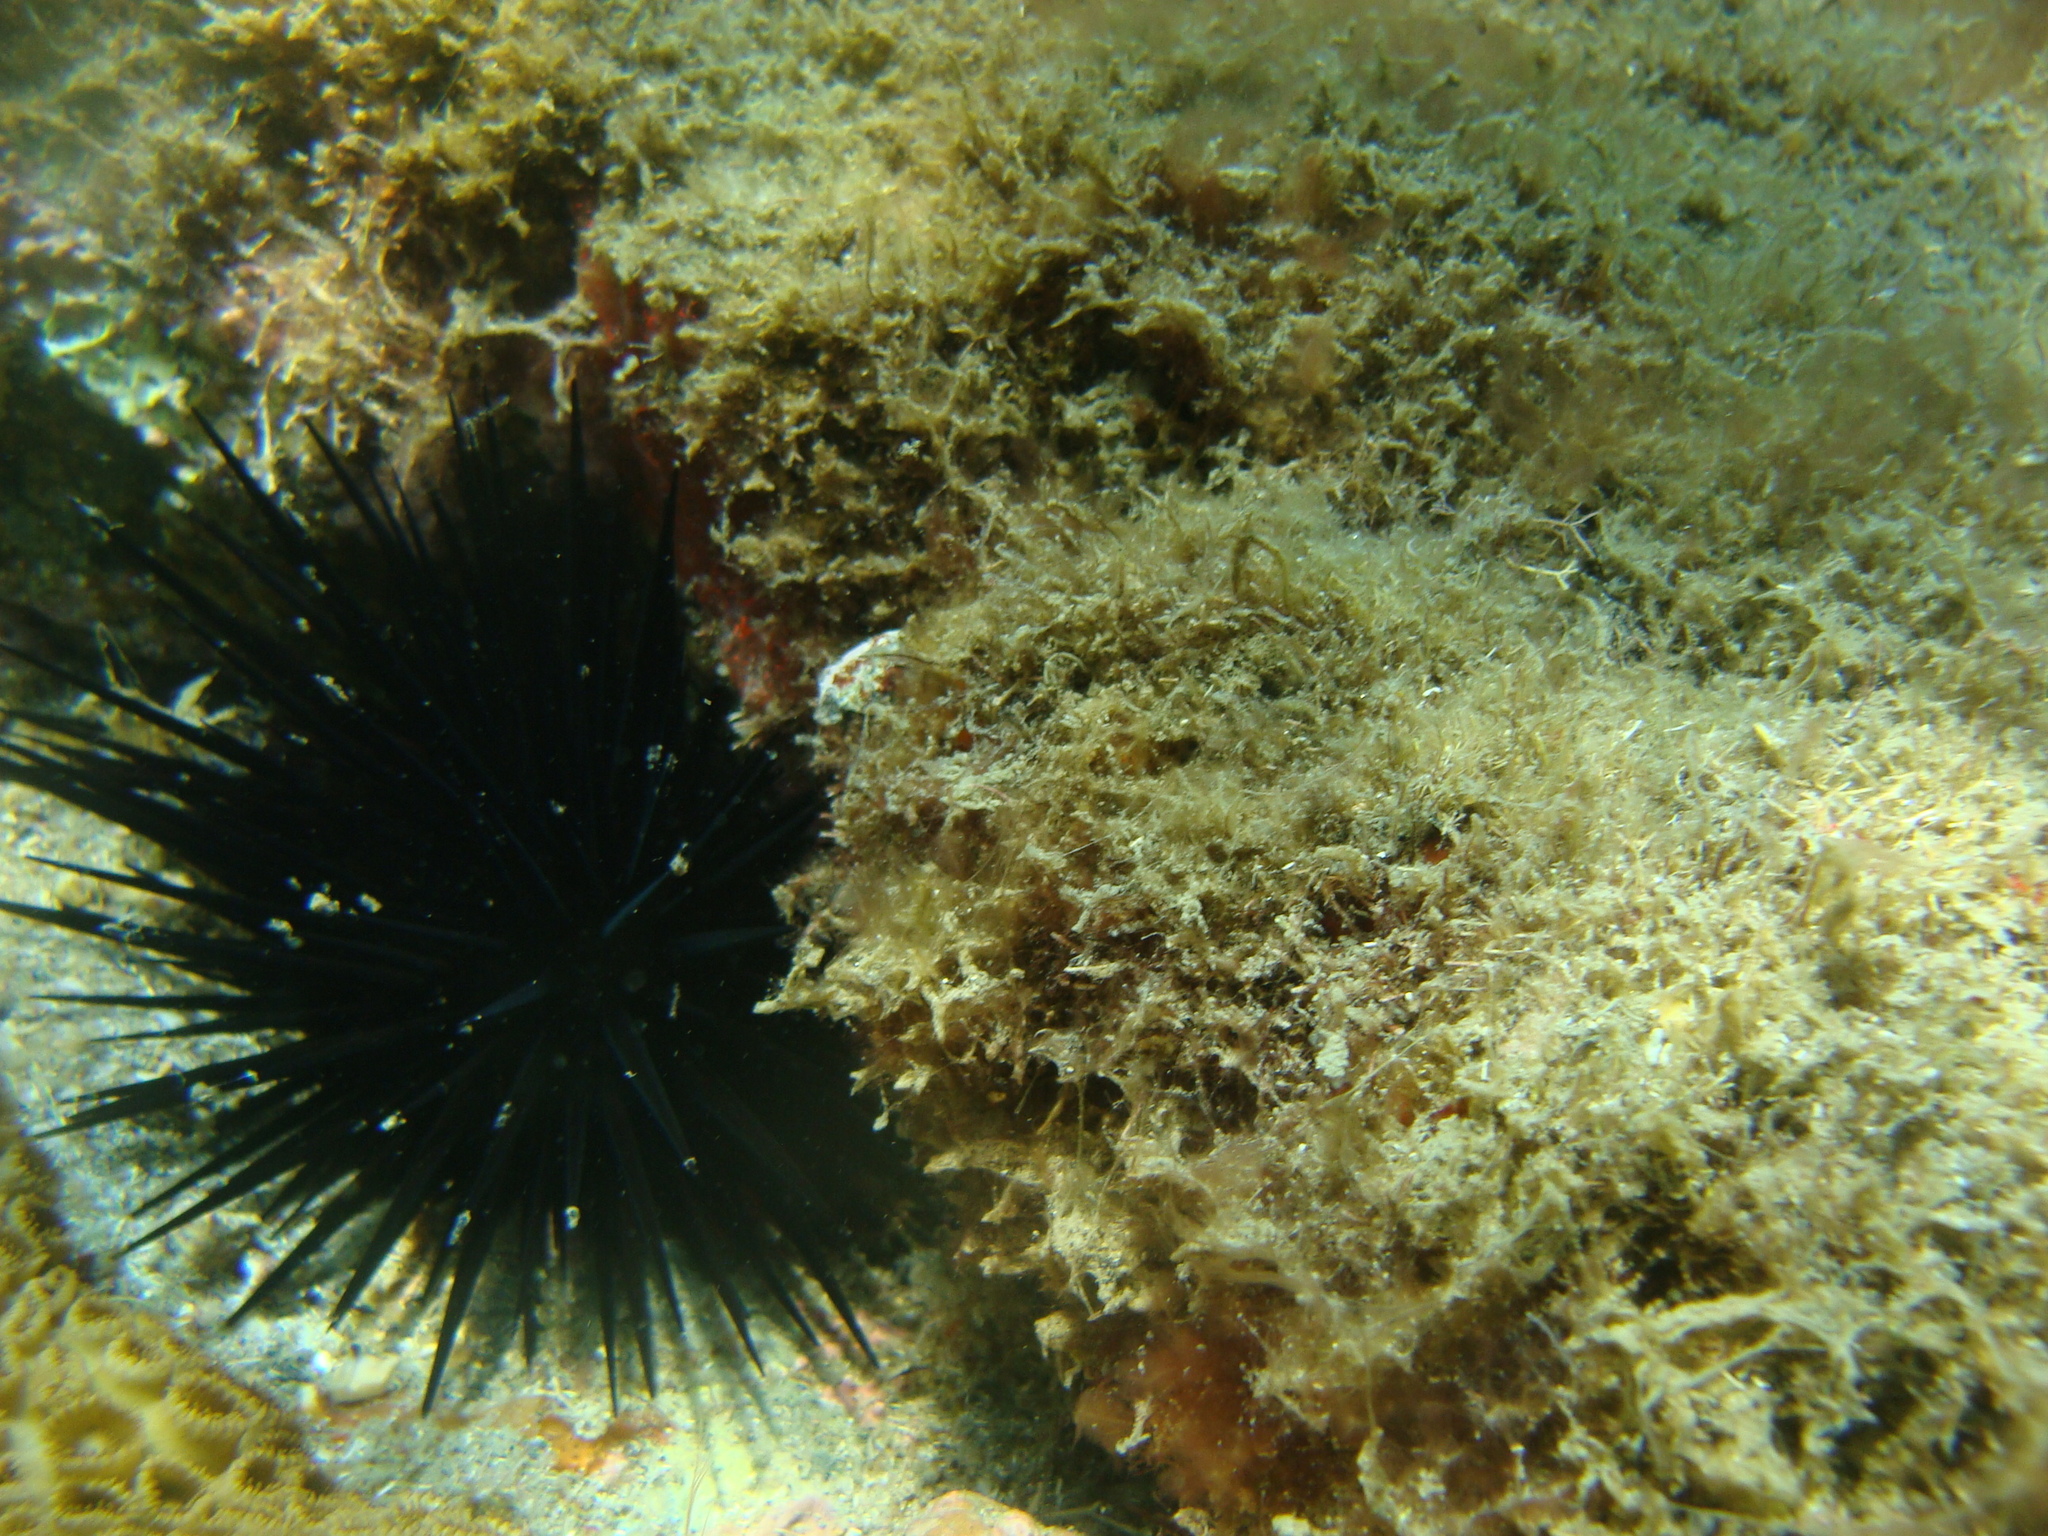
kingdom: Animalia
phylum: Echinodermata
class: Echinoidea
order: Camarodonta
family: Echinometridae
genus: Echinometra
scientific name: Echinometra lucunter
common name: Rock urchin
